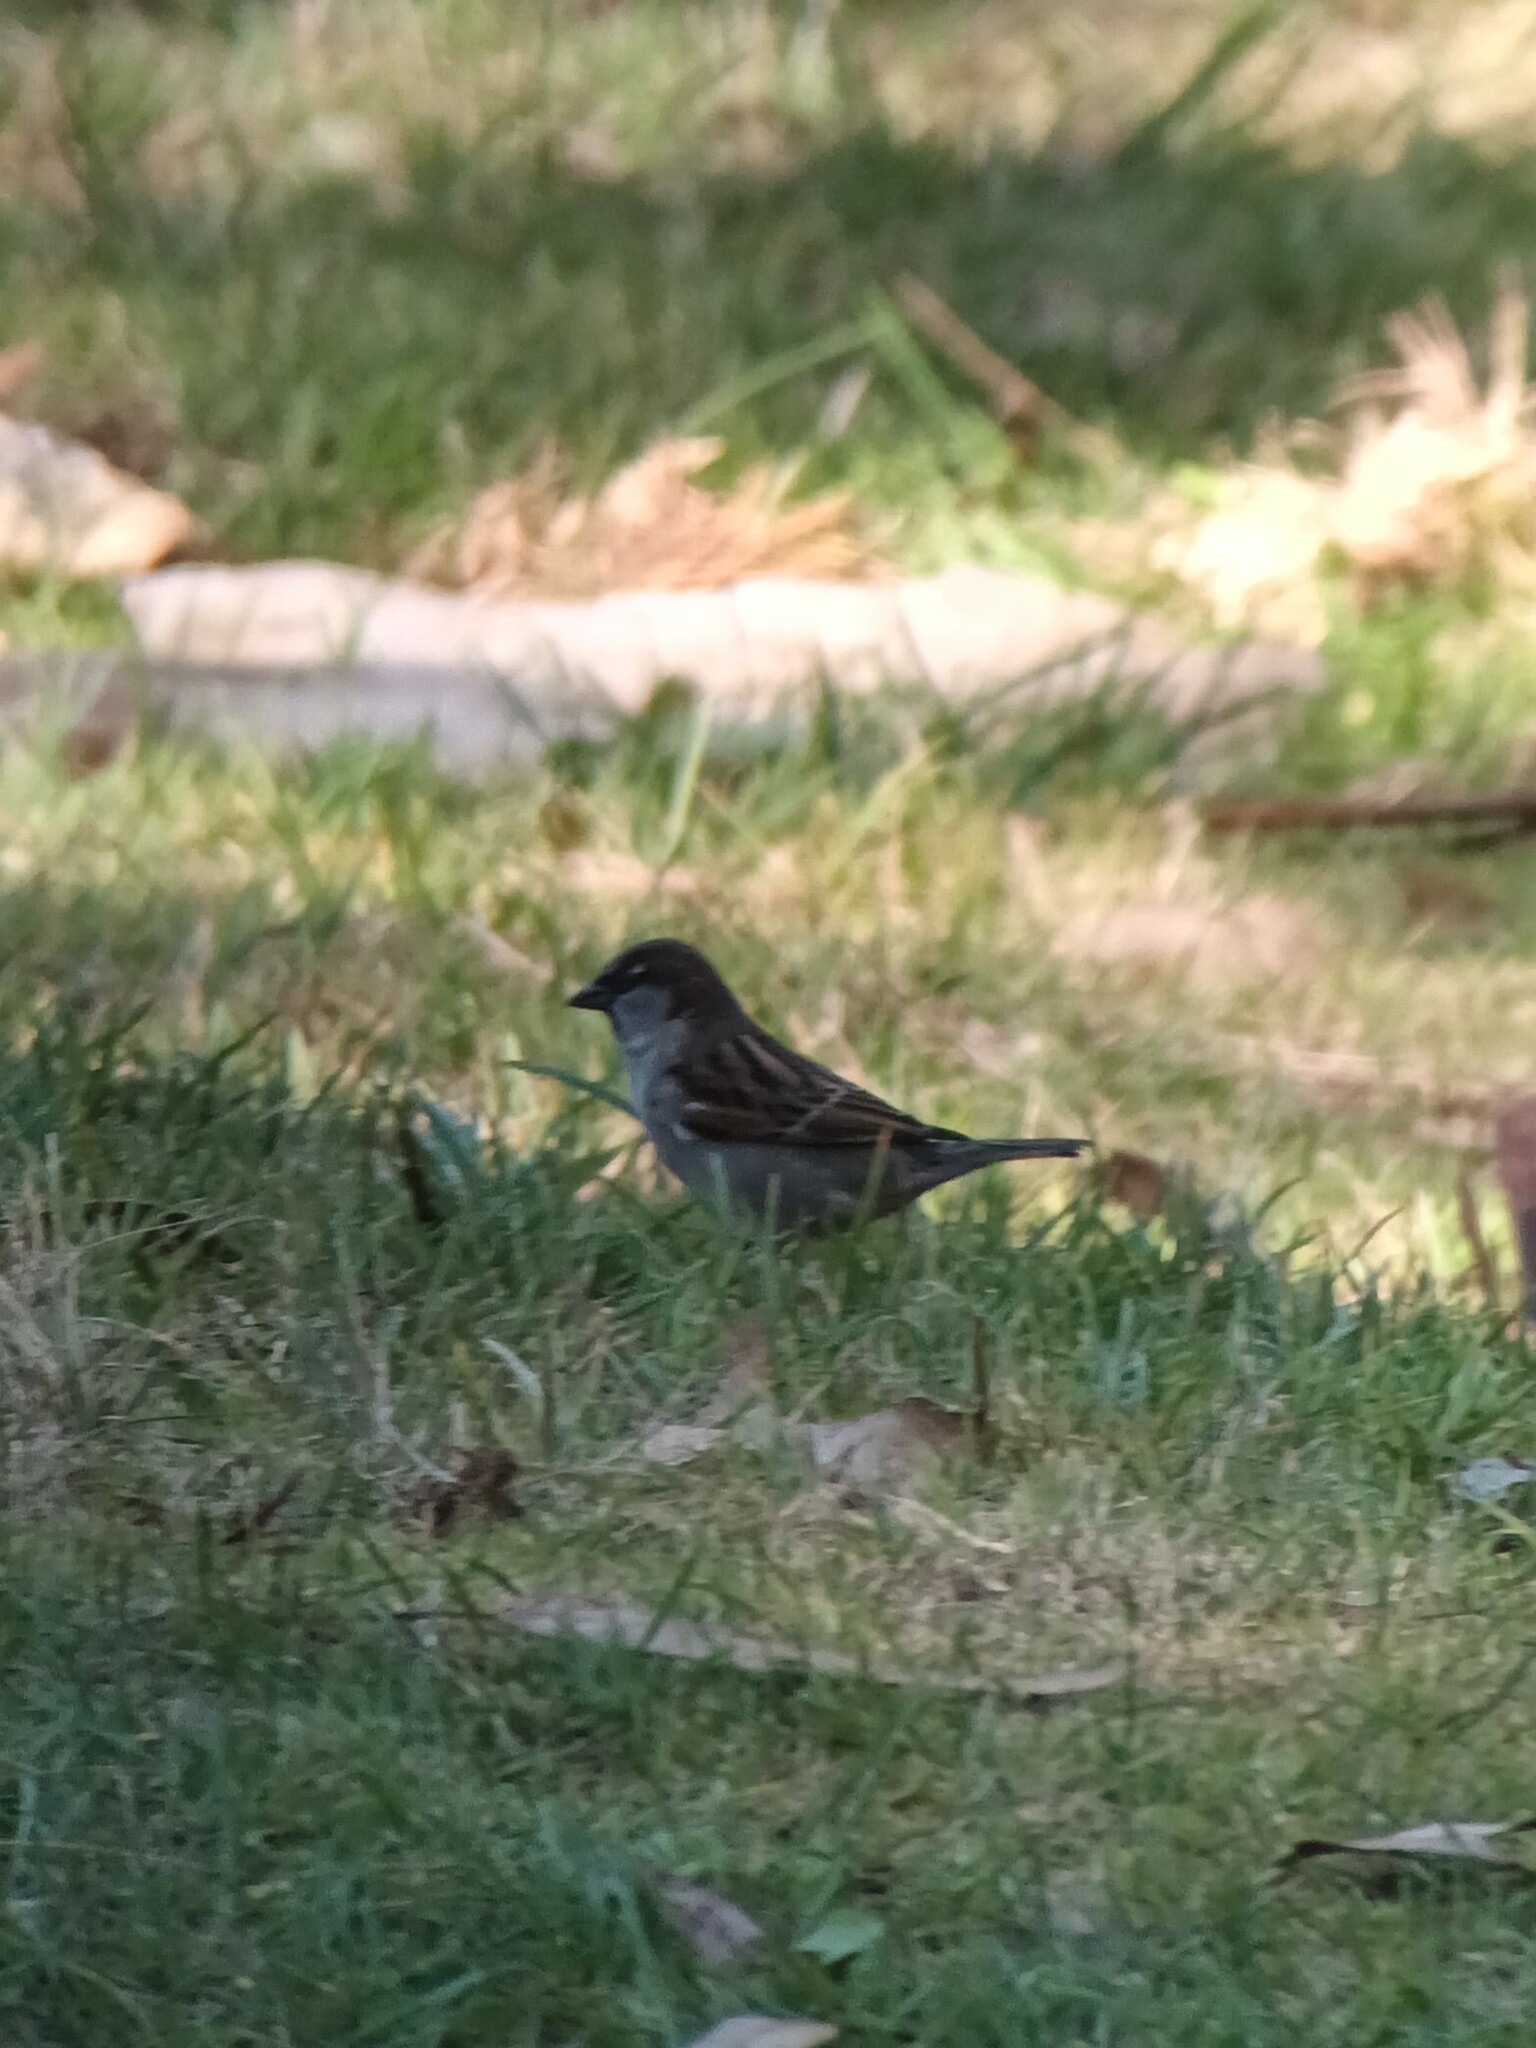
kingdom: Animalia
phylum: Chordata
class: Aves
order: Passeriformes
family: Passeridae
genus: Passer
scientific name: Passer domesticus
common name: House sparrow
